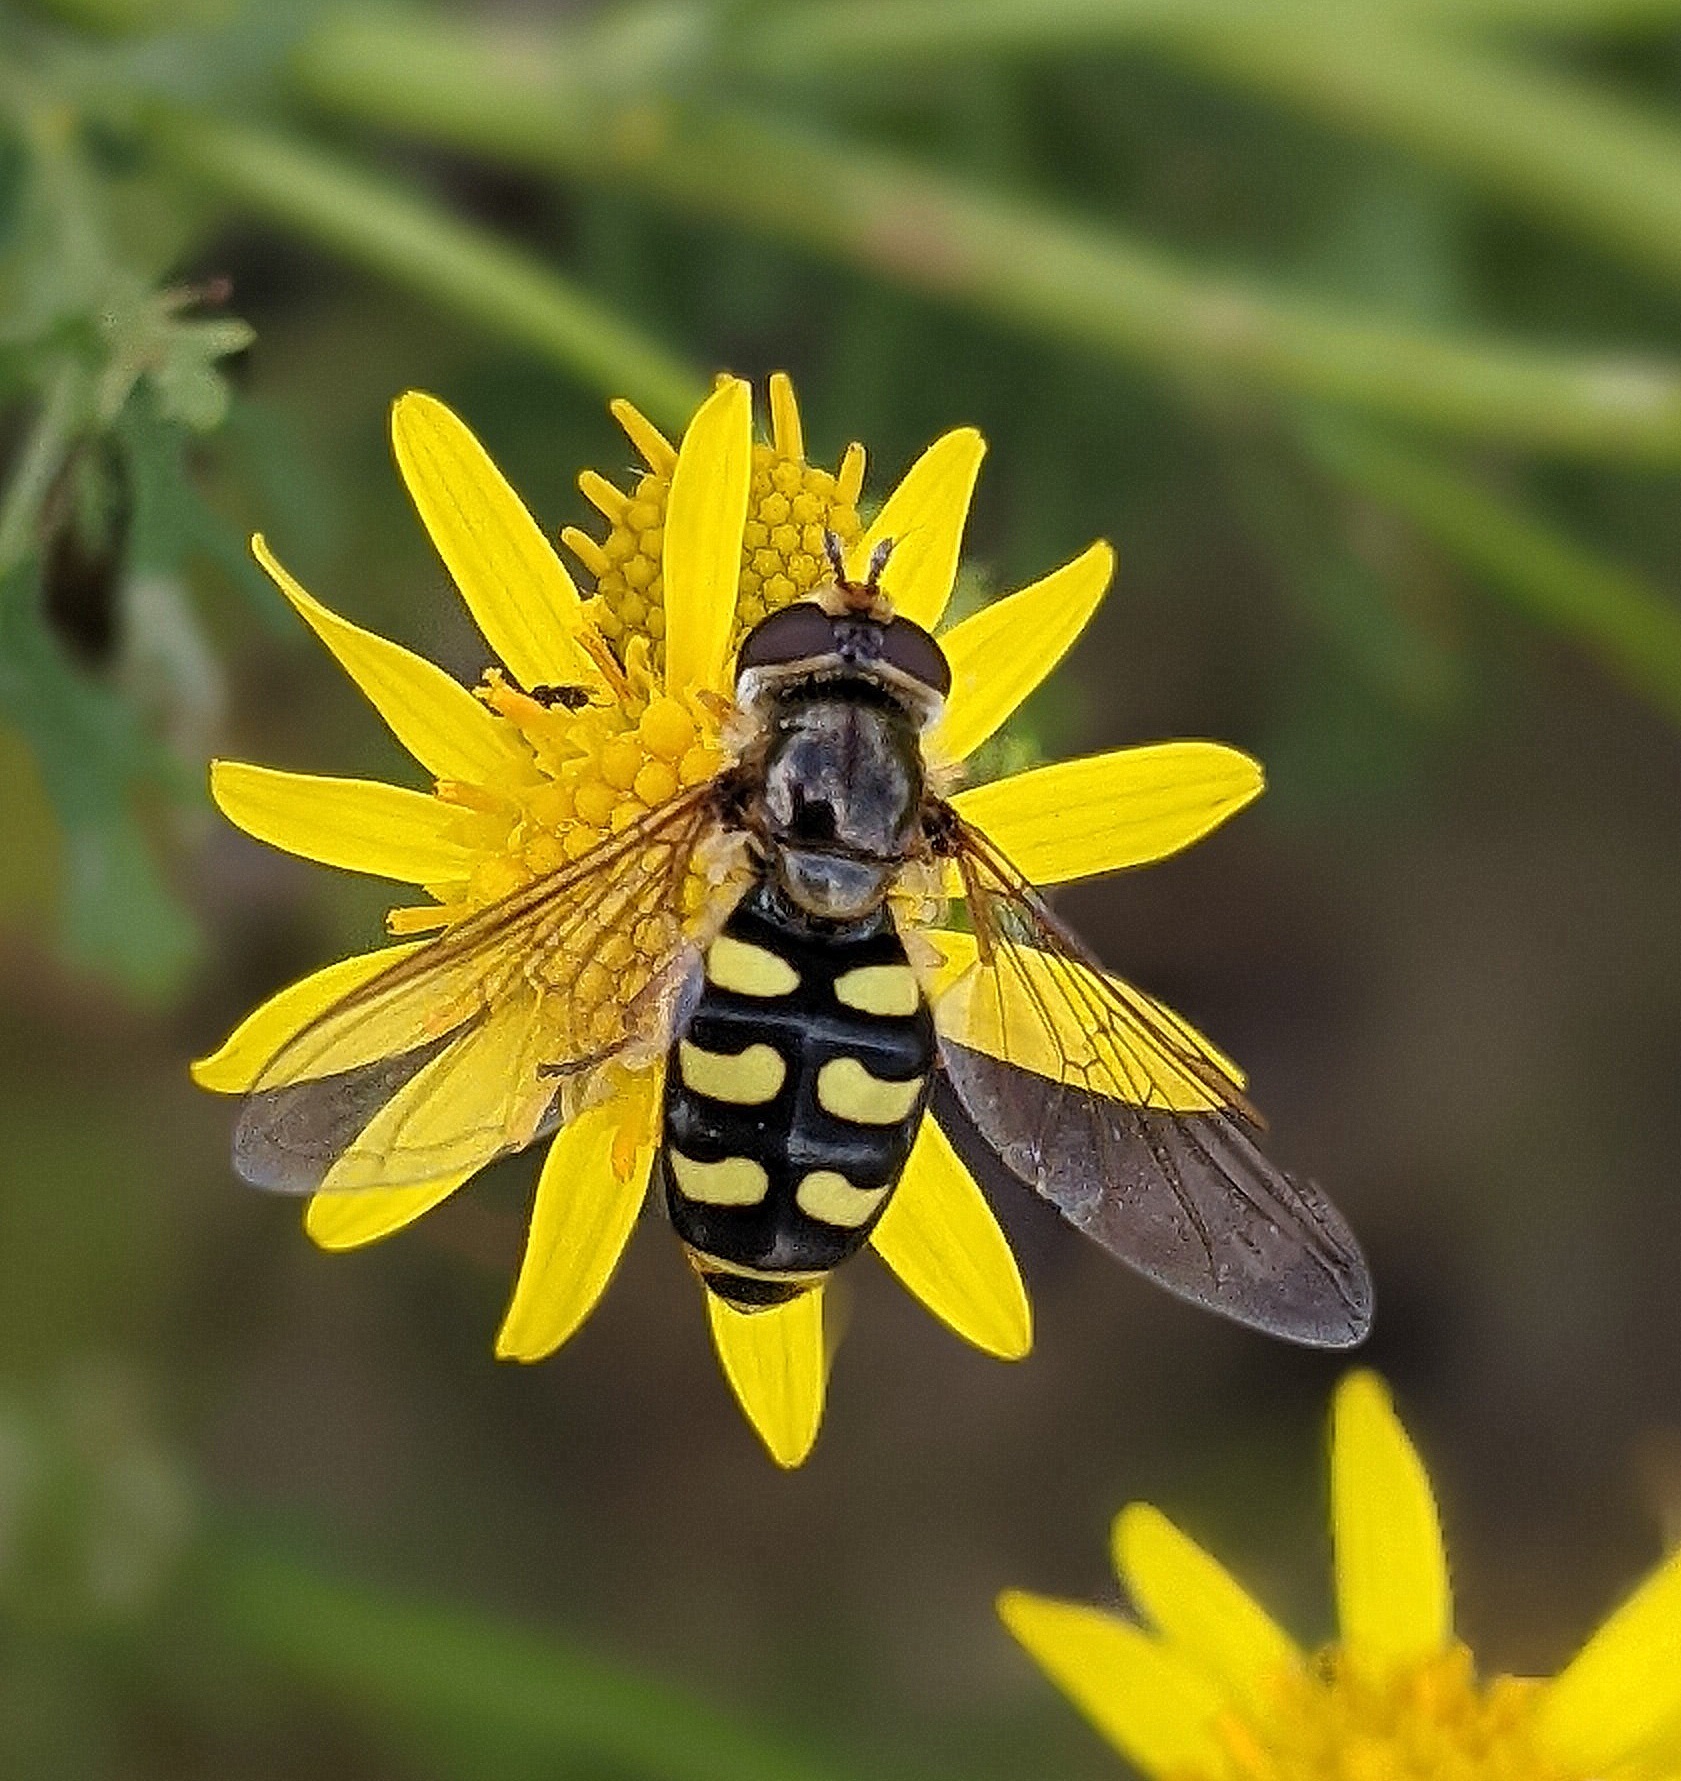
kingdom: Animalia
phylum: Arthropoda
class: Insecta
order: Diptera
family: Syrphidae
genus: Eupeodes
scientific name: Eupeodes luniger
